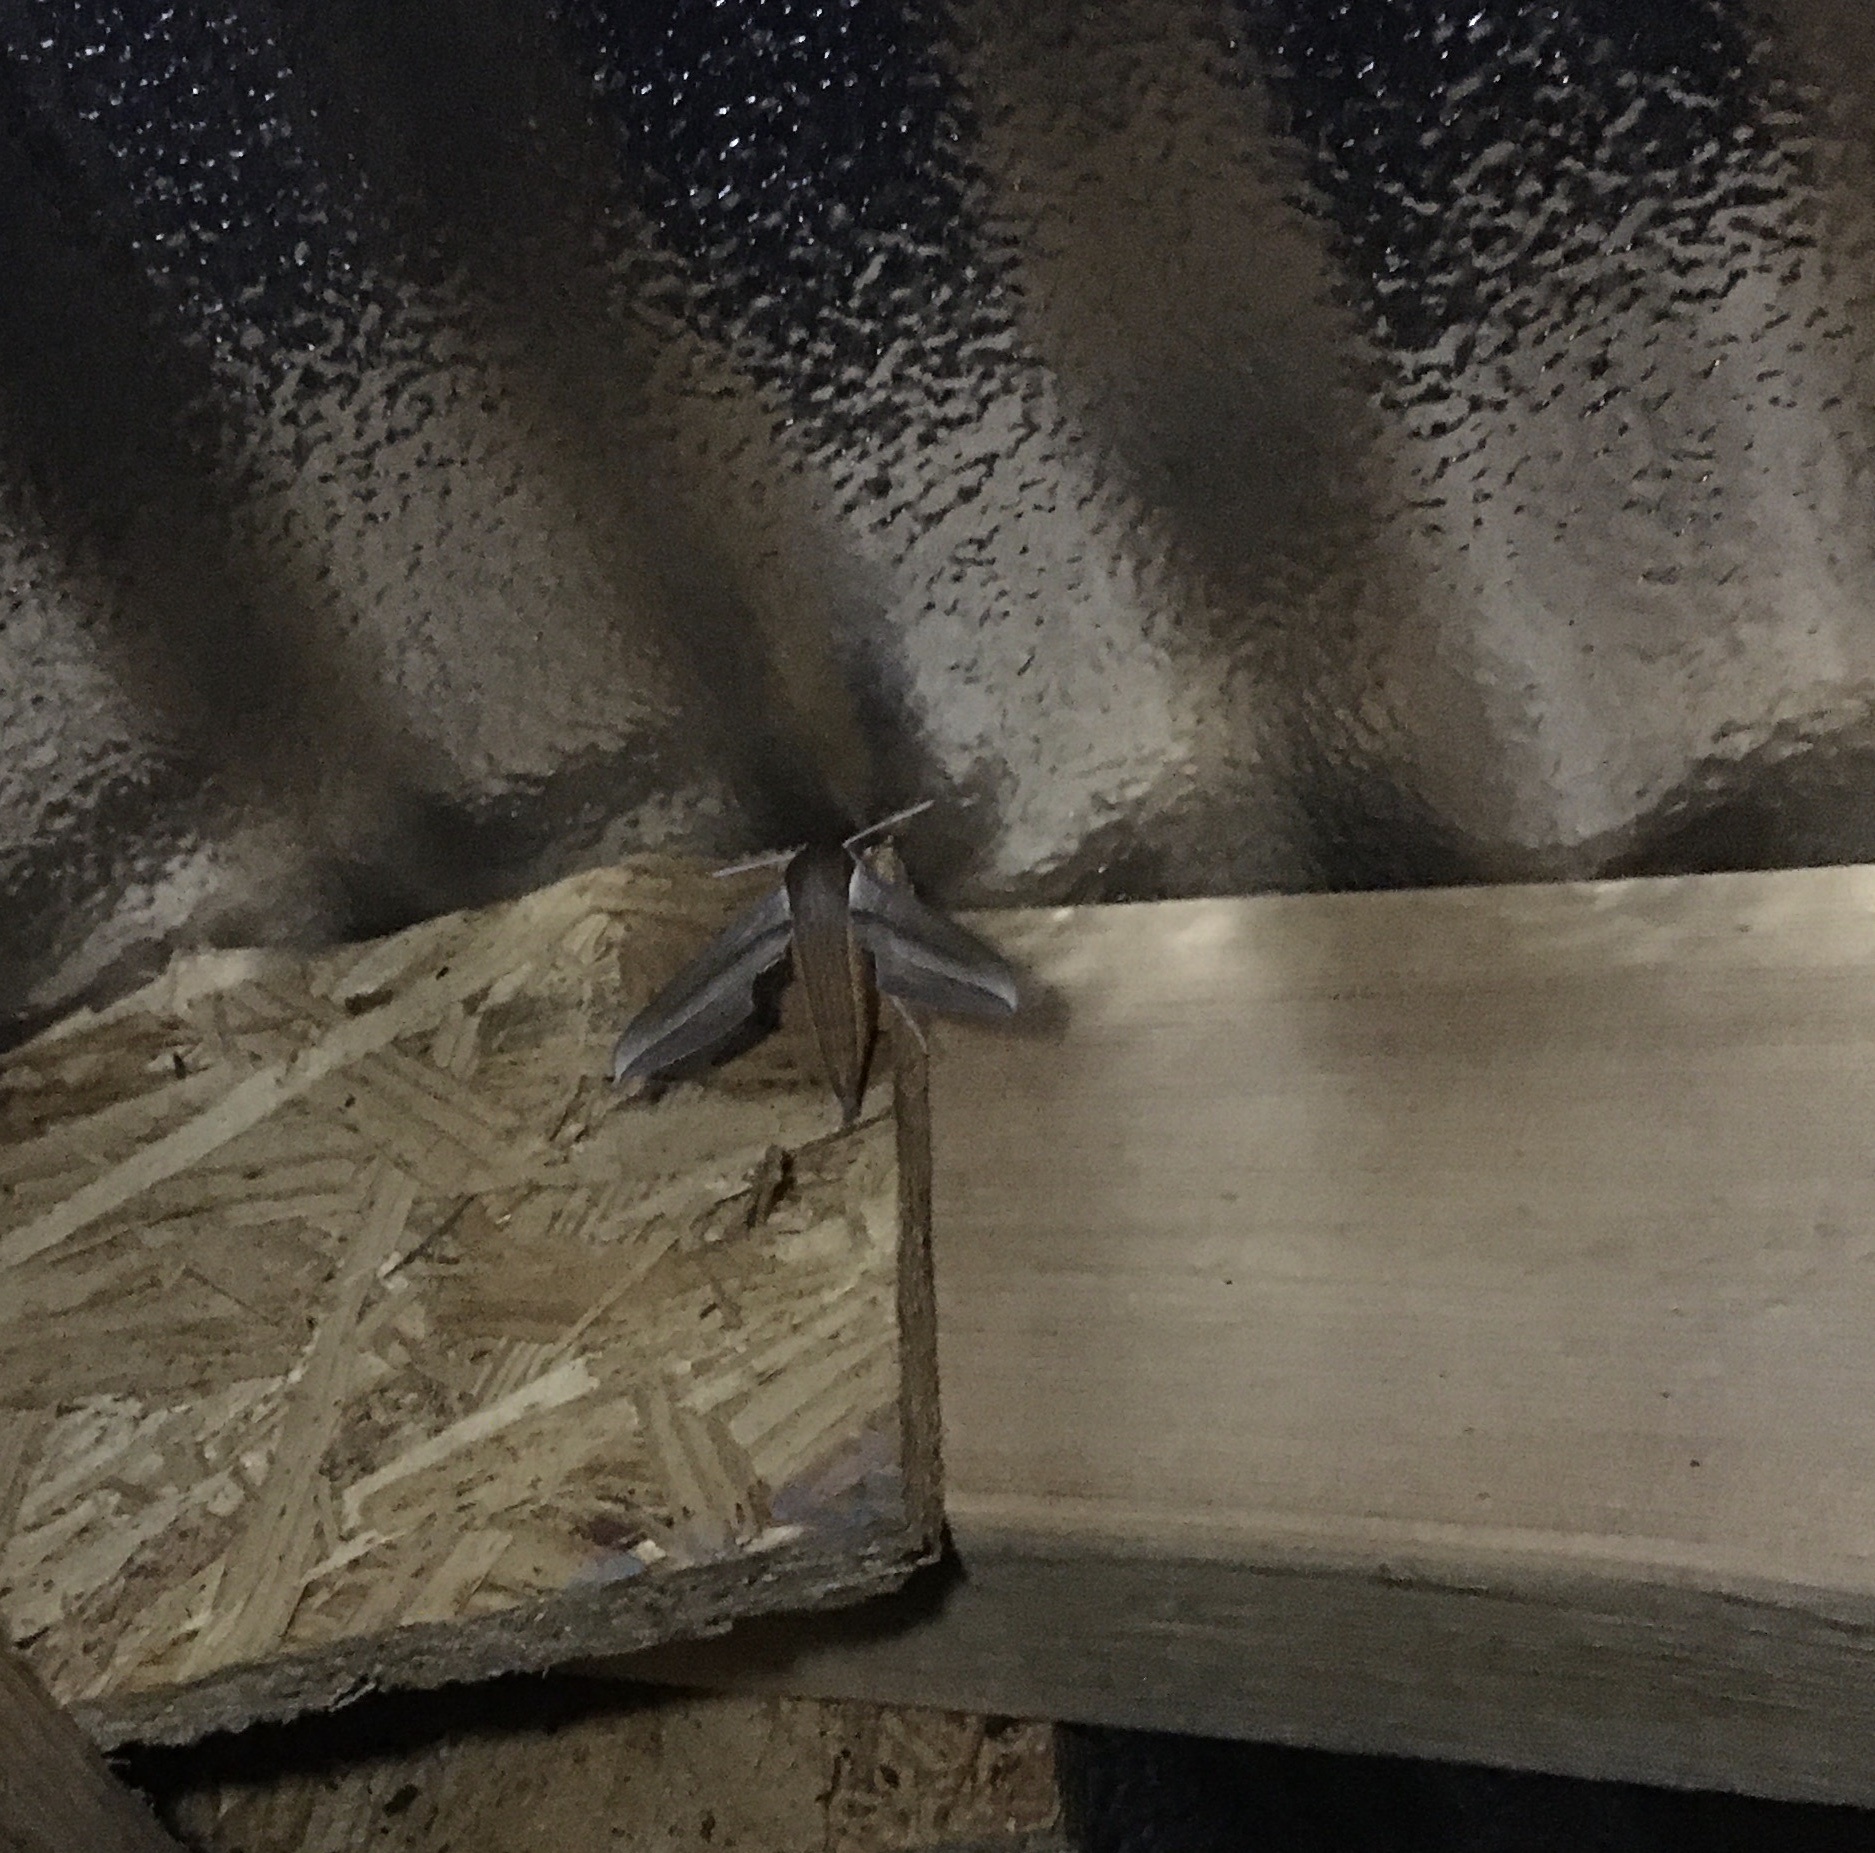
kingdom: Animalia
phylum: Arthropoda
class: Insecta
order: Lepidoptera
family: Sphingidae
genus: Xylophanes
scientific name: Xylophanes tersa
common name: Tersa sphinx
